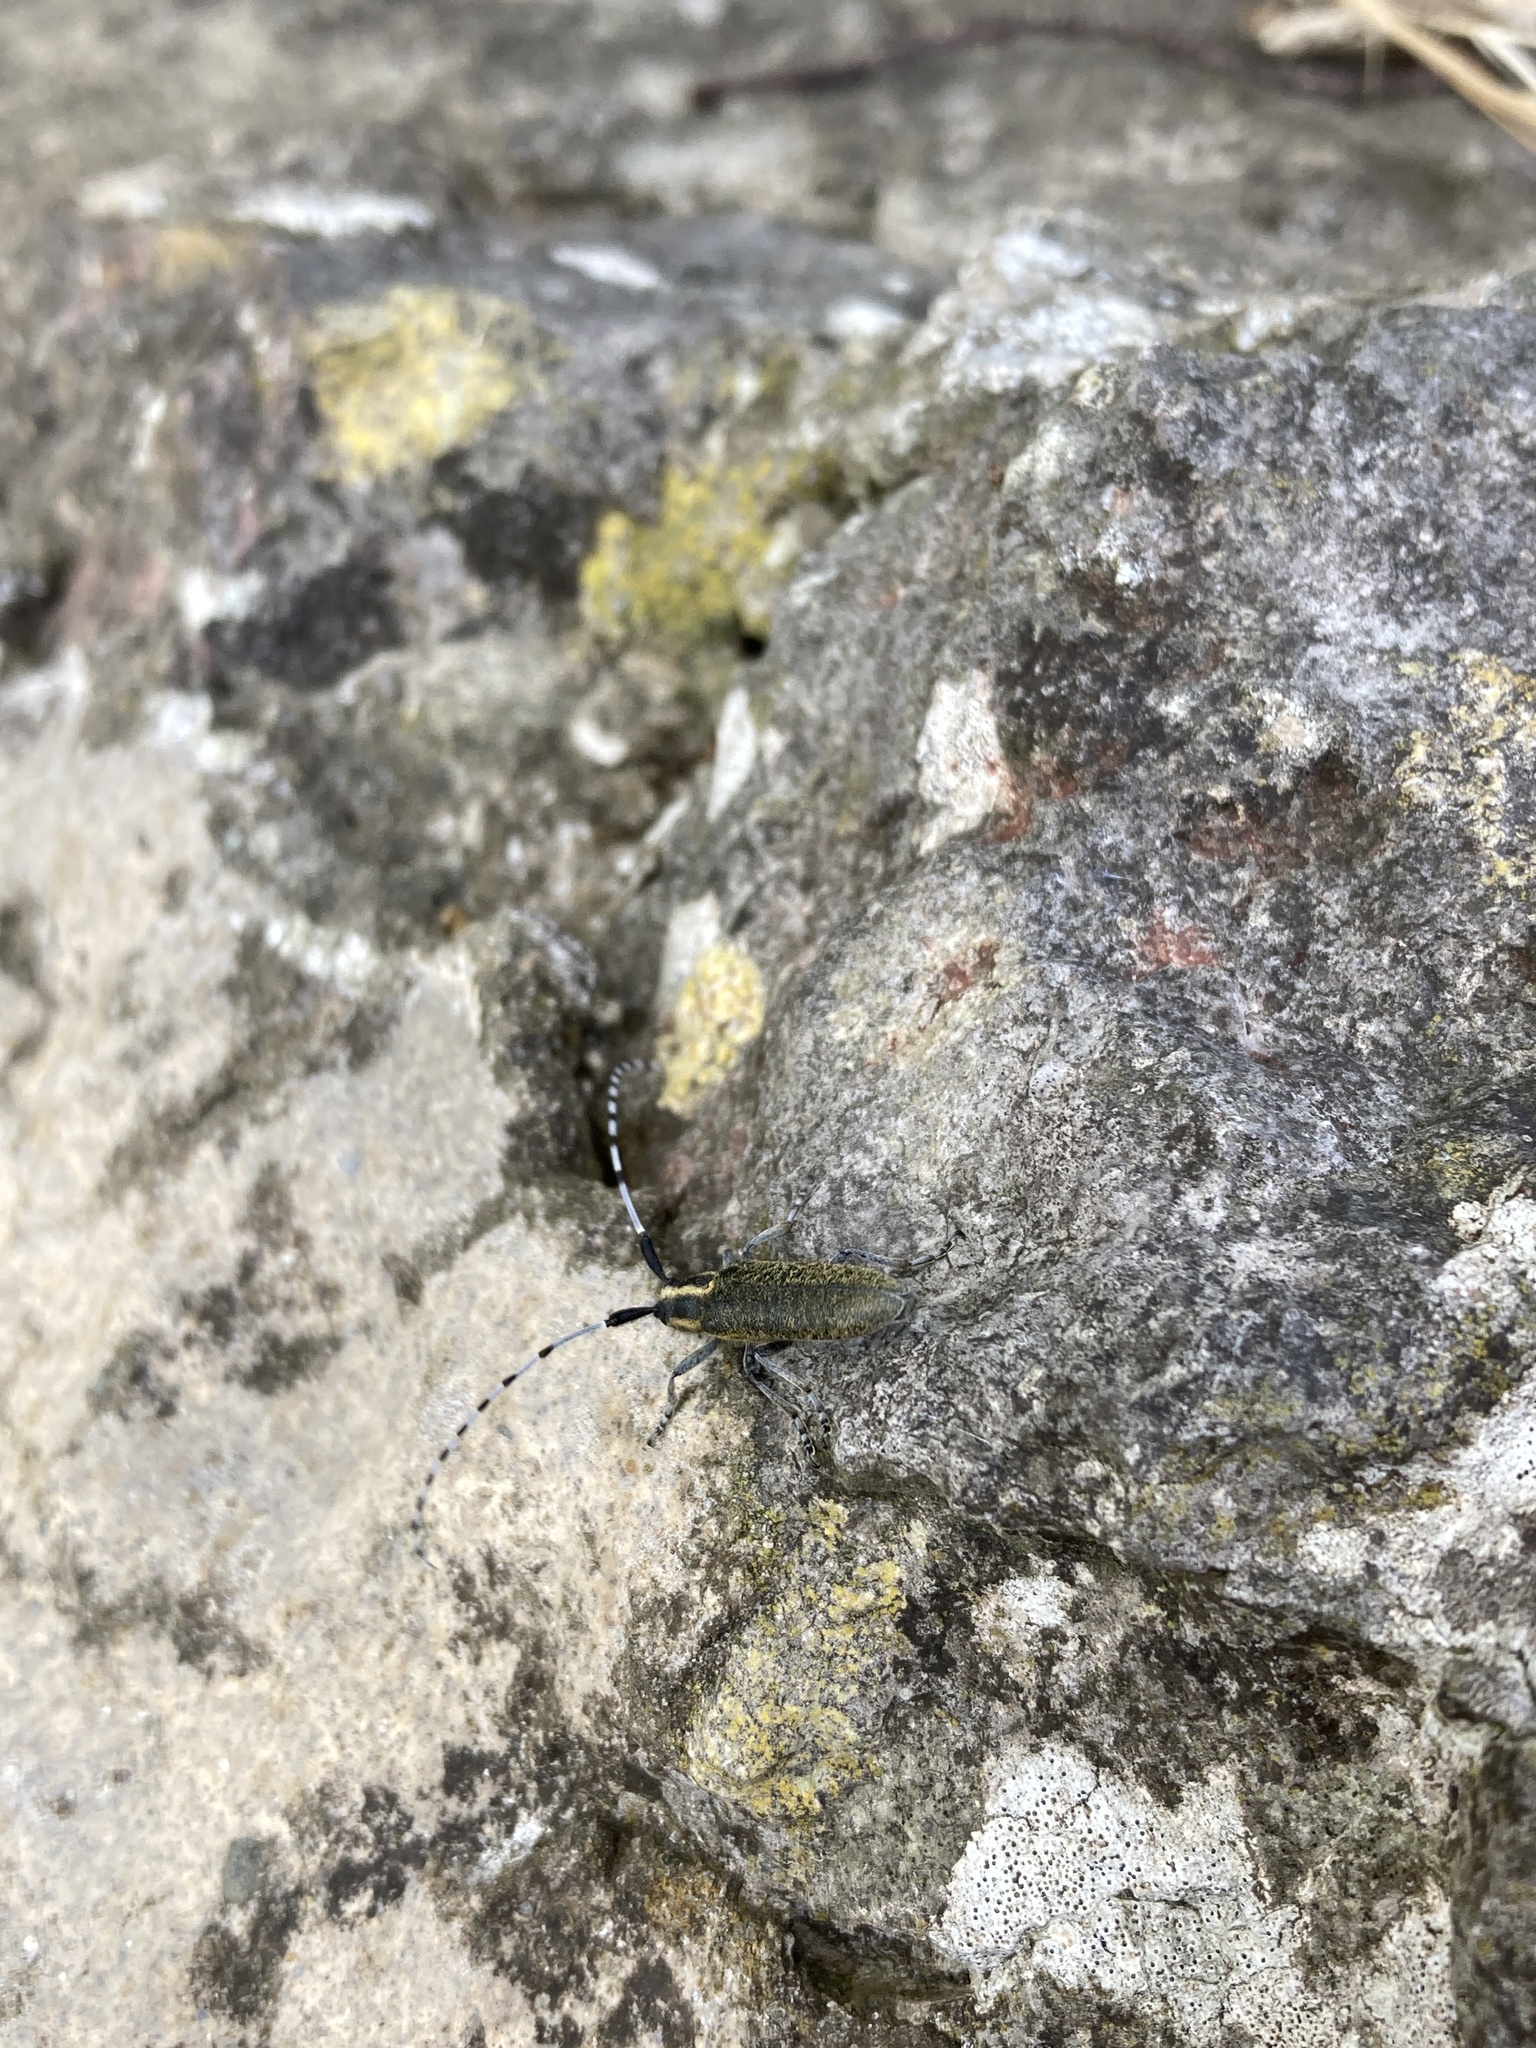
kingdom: Animalia
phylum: Arthropoda
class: Insecta
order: Coleoptera
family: Cerambycidae
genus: Agapanthia
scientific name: Agapanthia villosoviridescens
